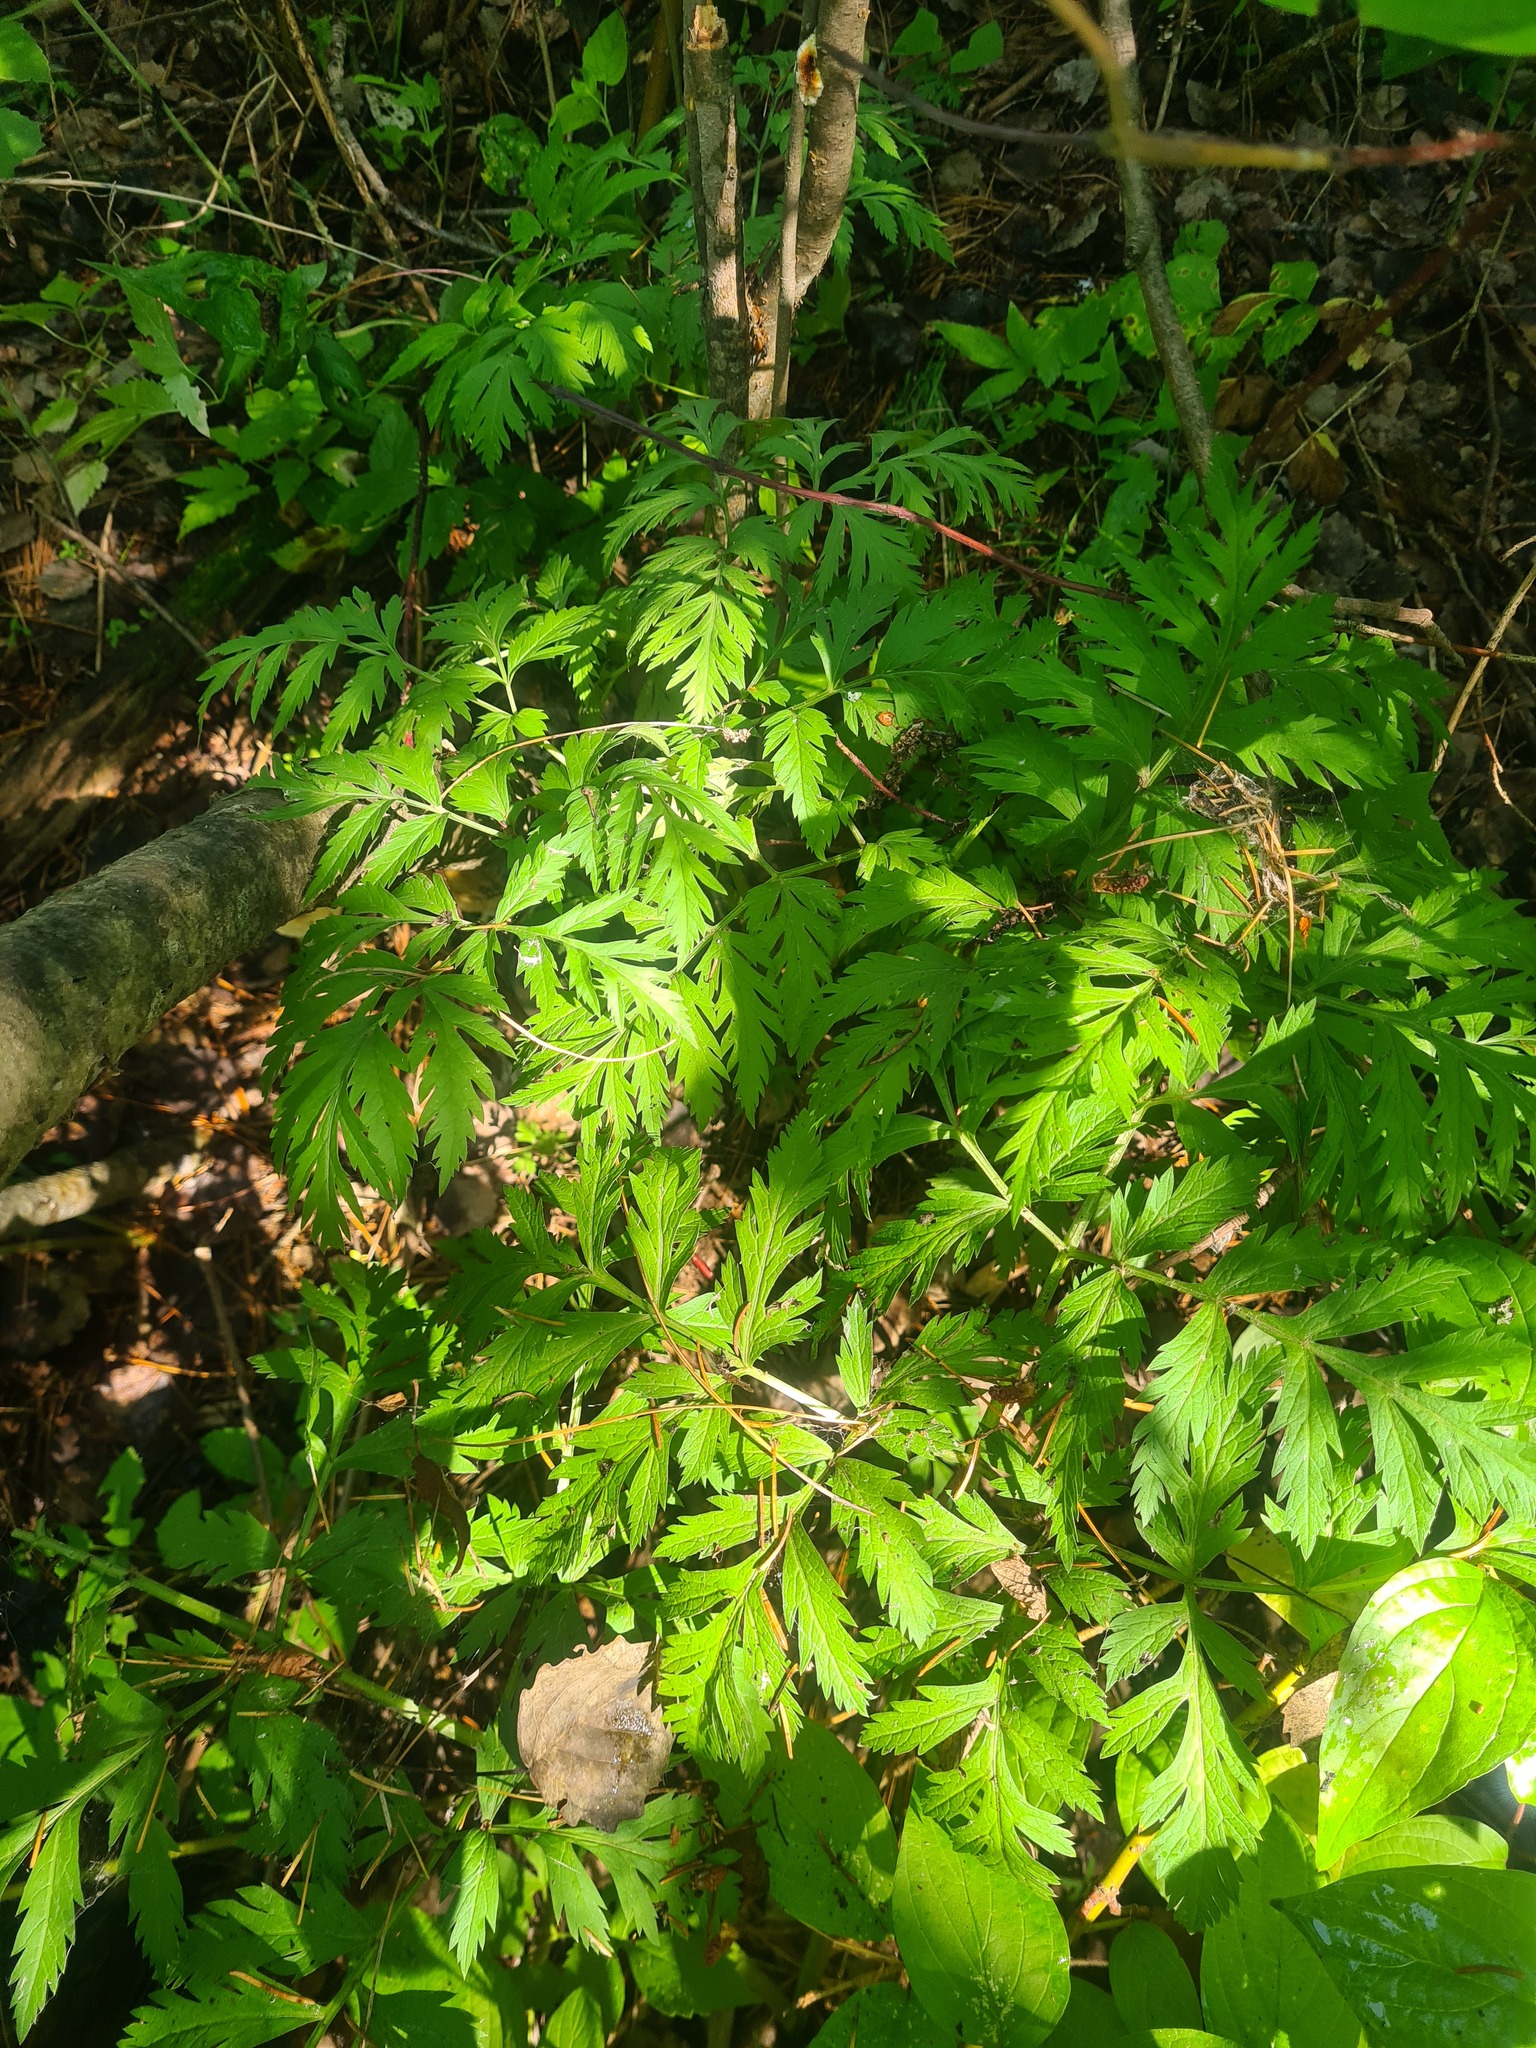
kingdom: Plantae
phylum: Tracheophyta
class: Magnoliopsida
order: Apiales
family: Apiaceae
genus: Pleurospermum
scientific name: Pleurospermum uralense
